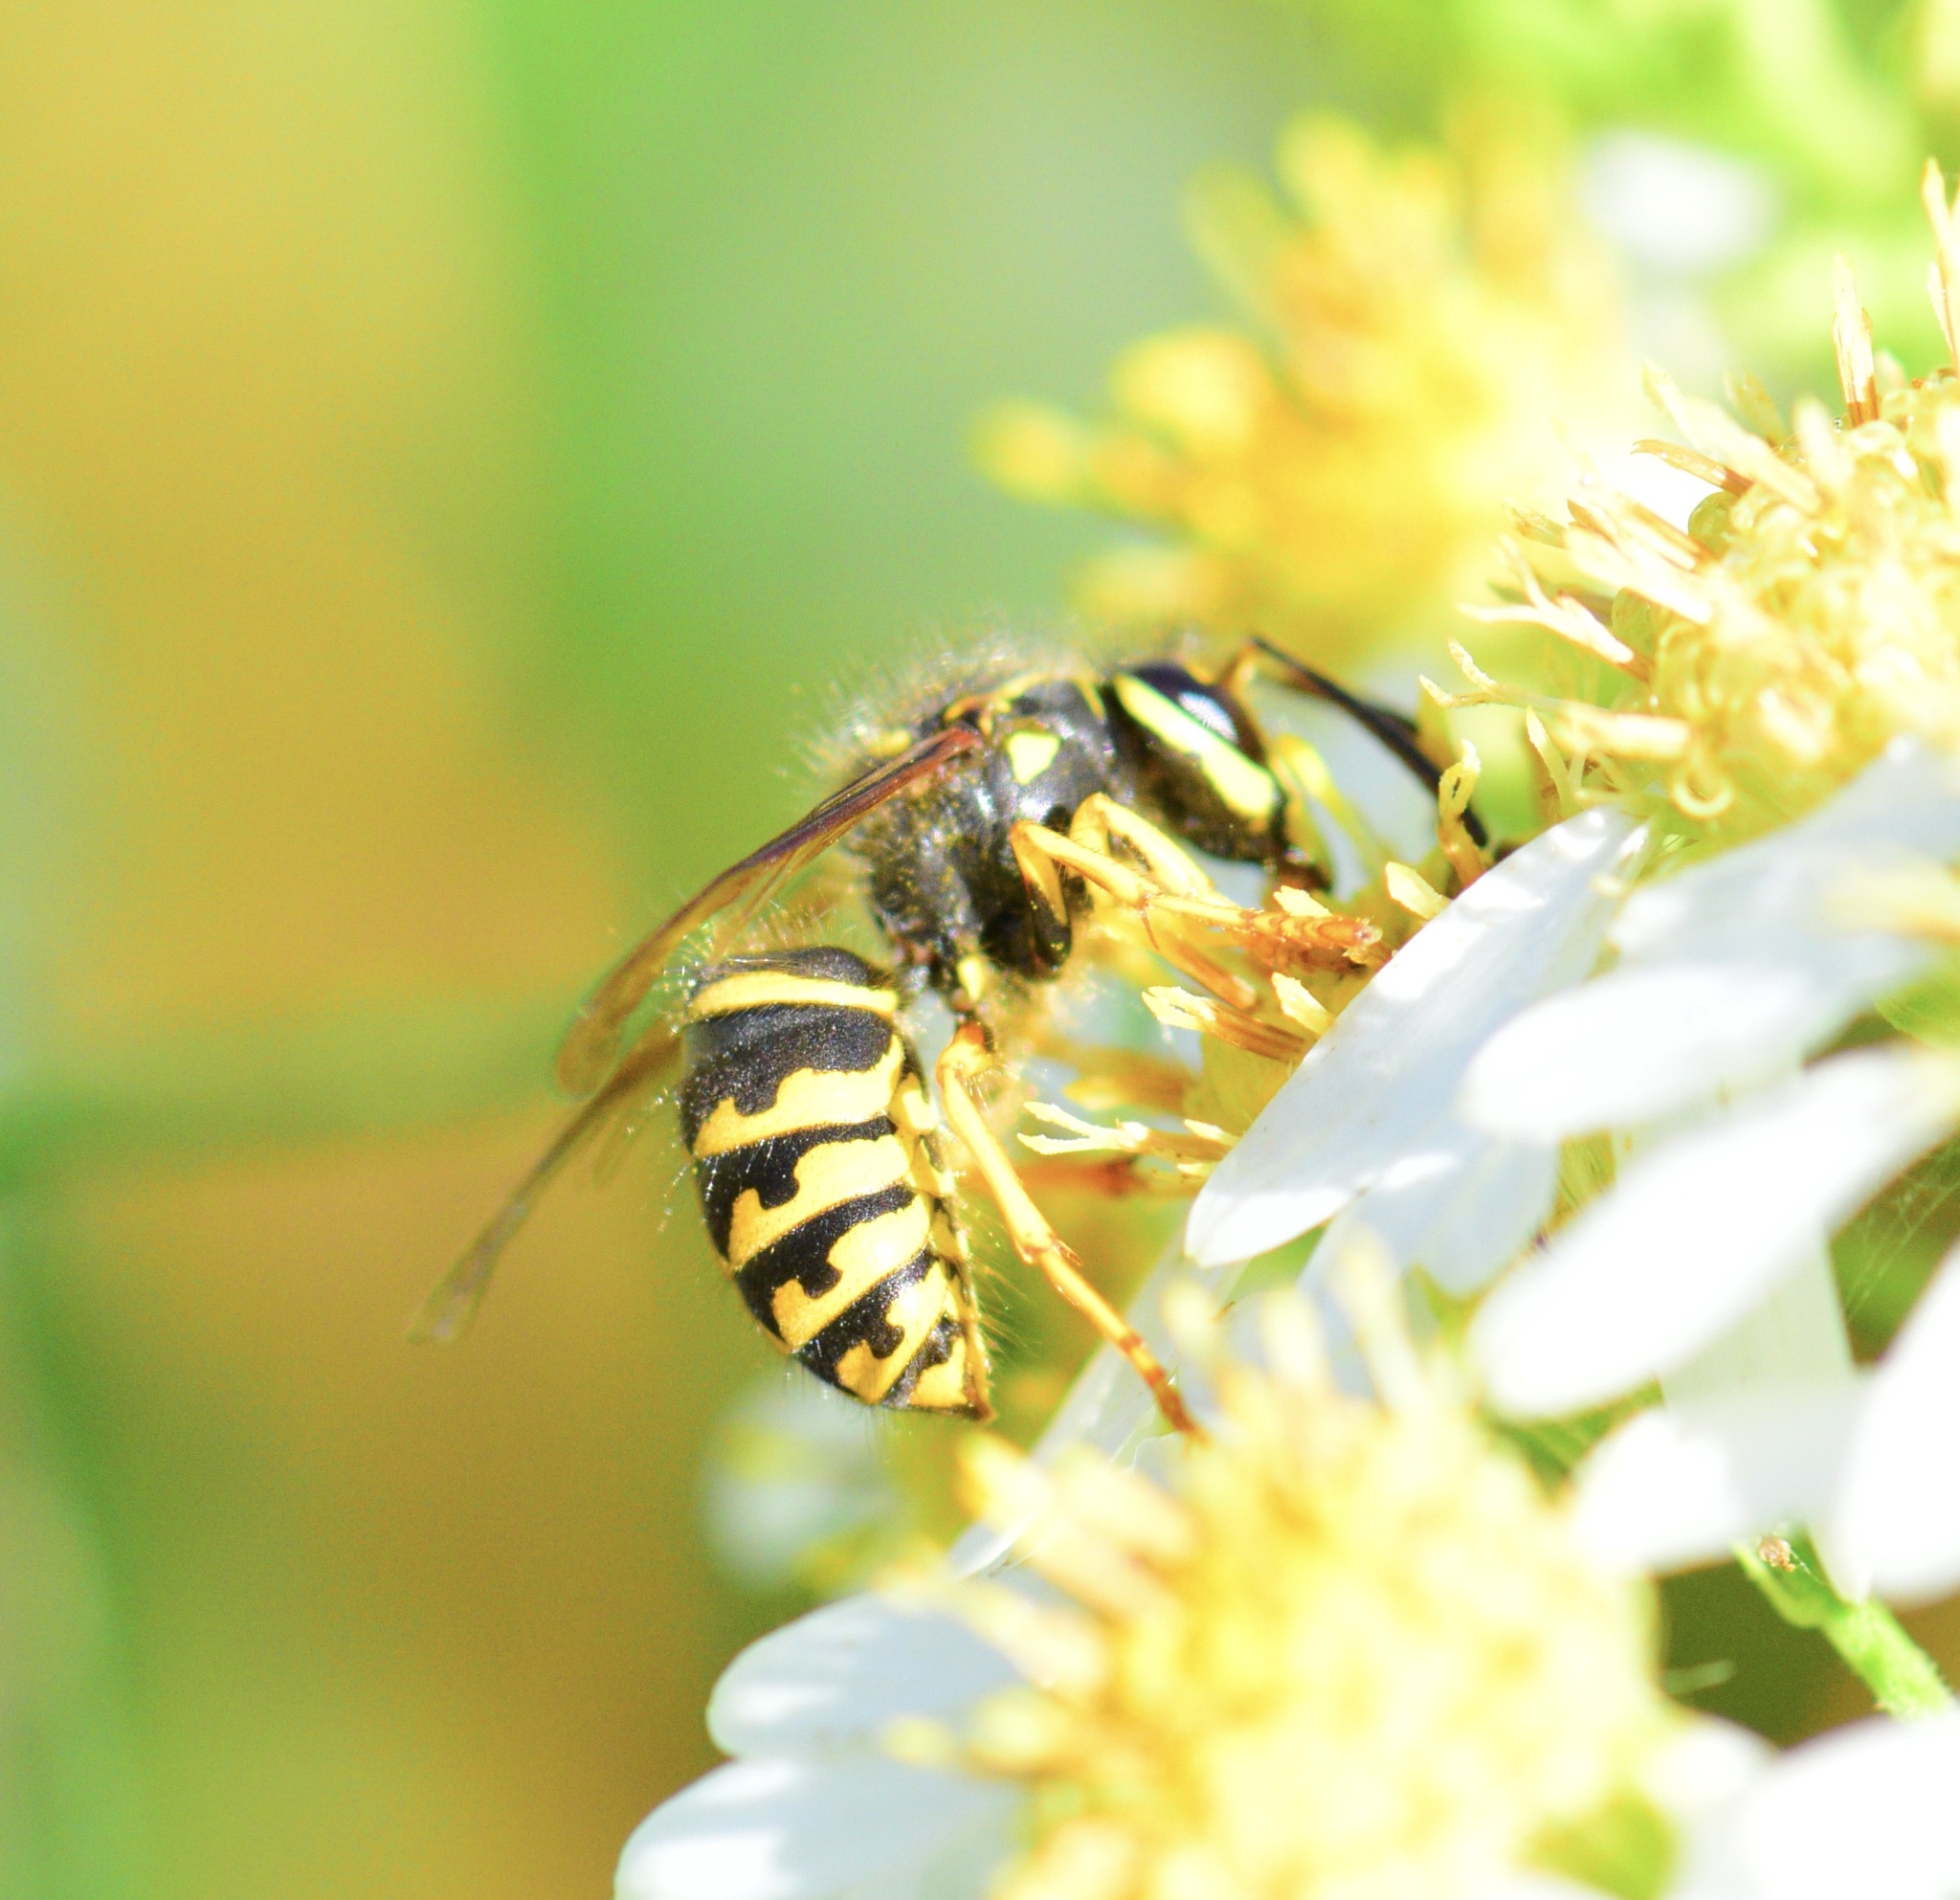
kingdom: Animalia
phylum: Arthropoda
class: Insecta
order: Hymenoptera
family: Vespidae
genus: Dolichovespula
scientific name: Dolichovespula arenaria
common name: Aerial yellowjacket
